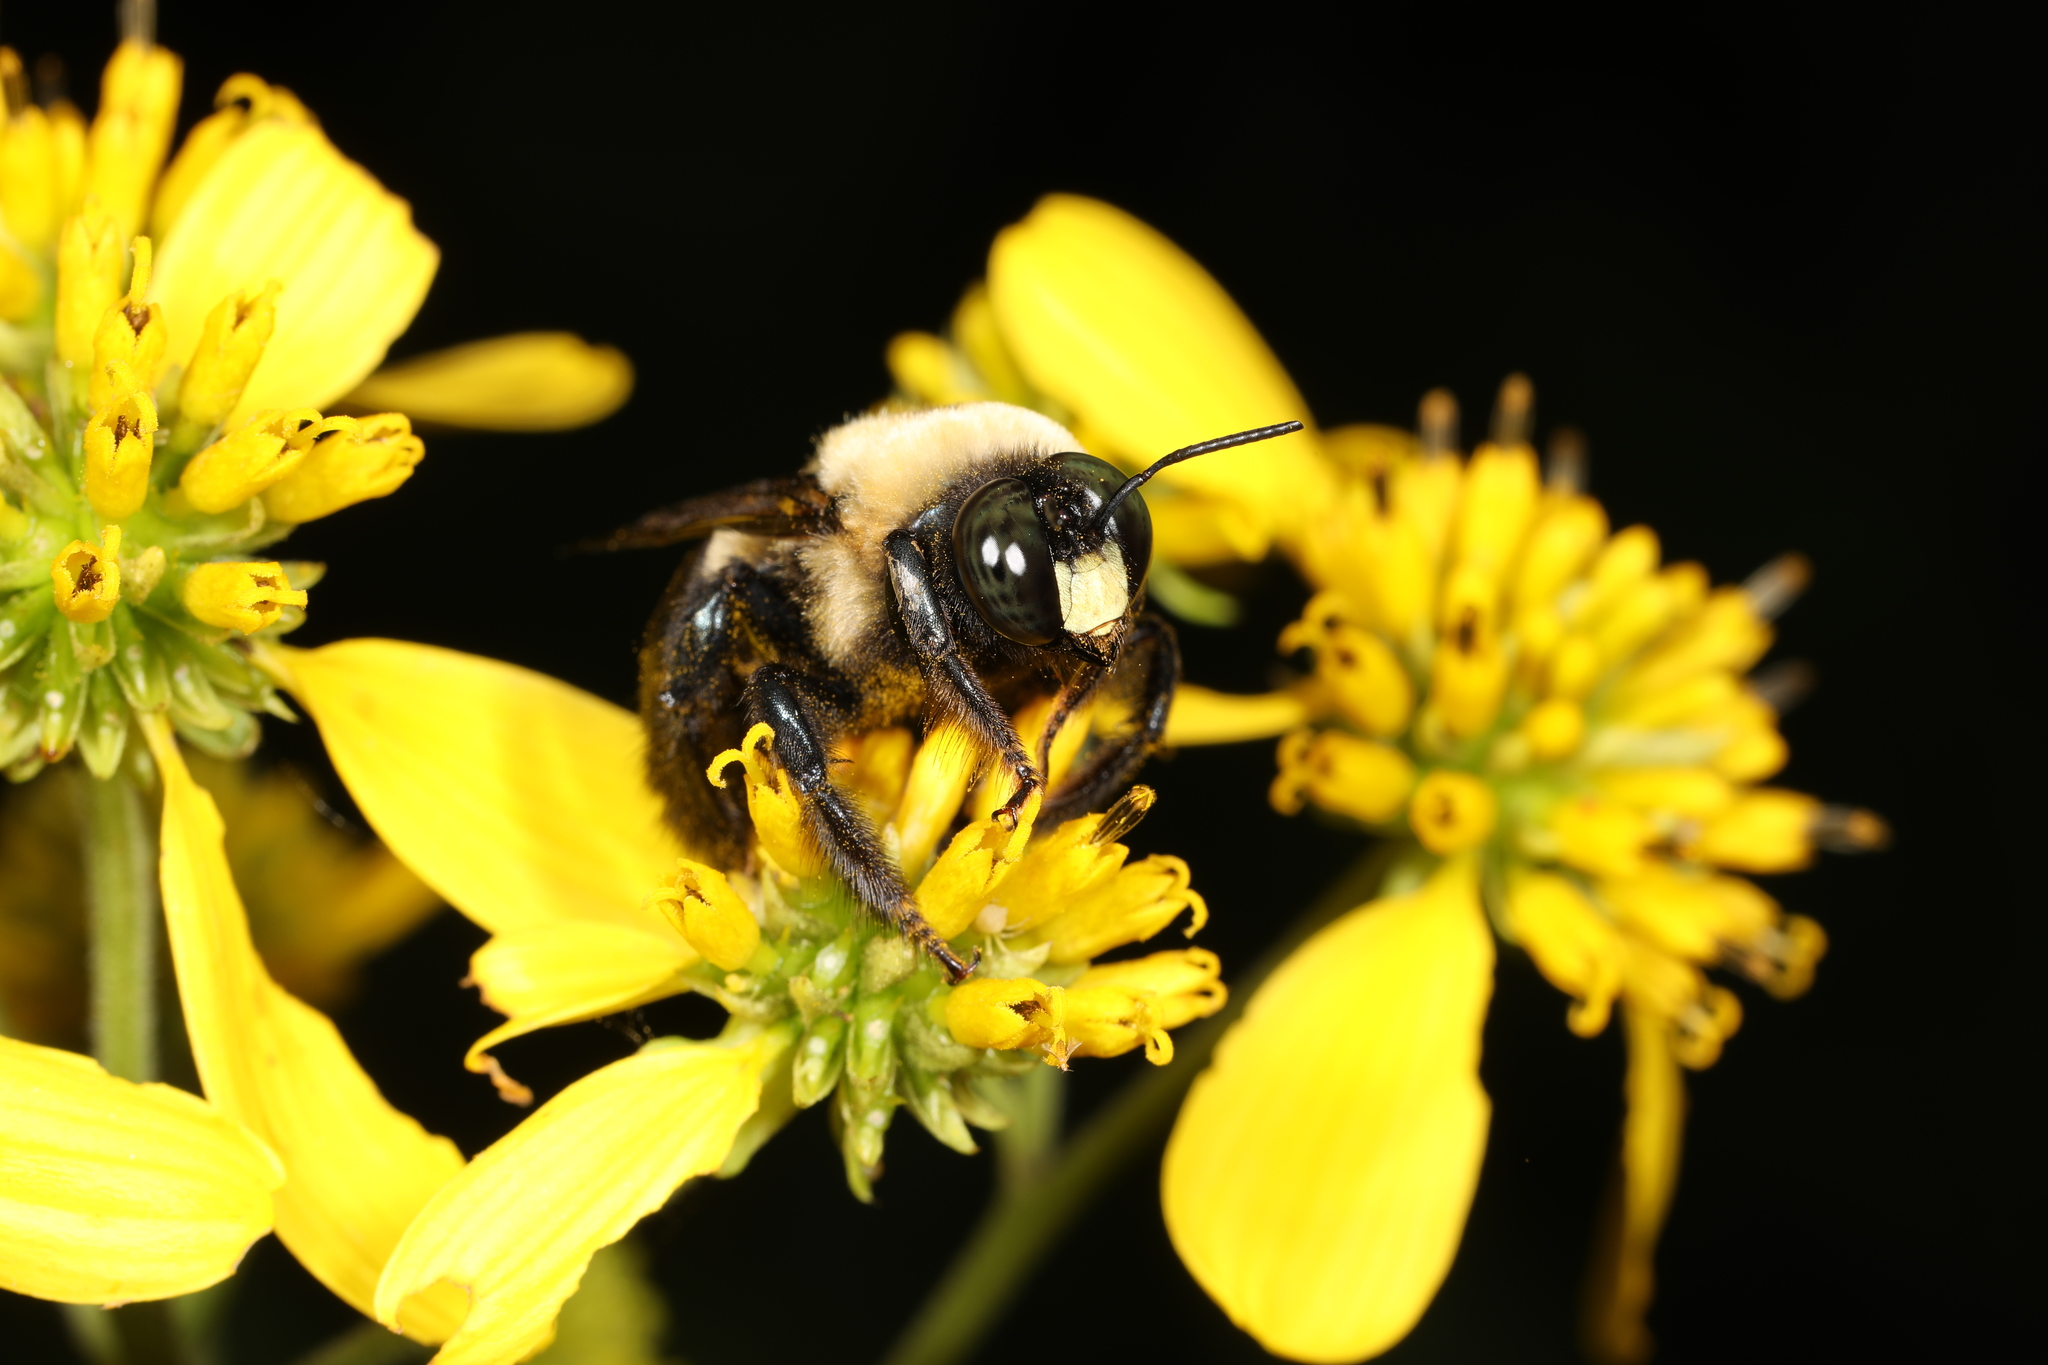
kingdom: Animalia
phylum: Arthropoda
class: Insecta
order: Hymenoptera
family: Apidae
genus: Xylocopa
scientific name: Xylocopa virginica
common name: Carpenter bee
